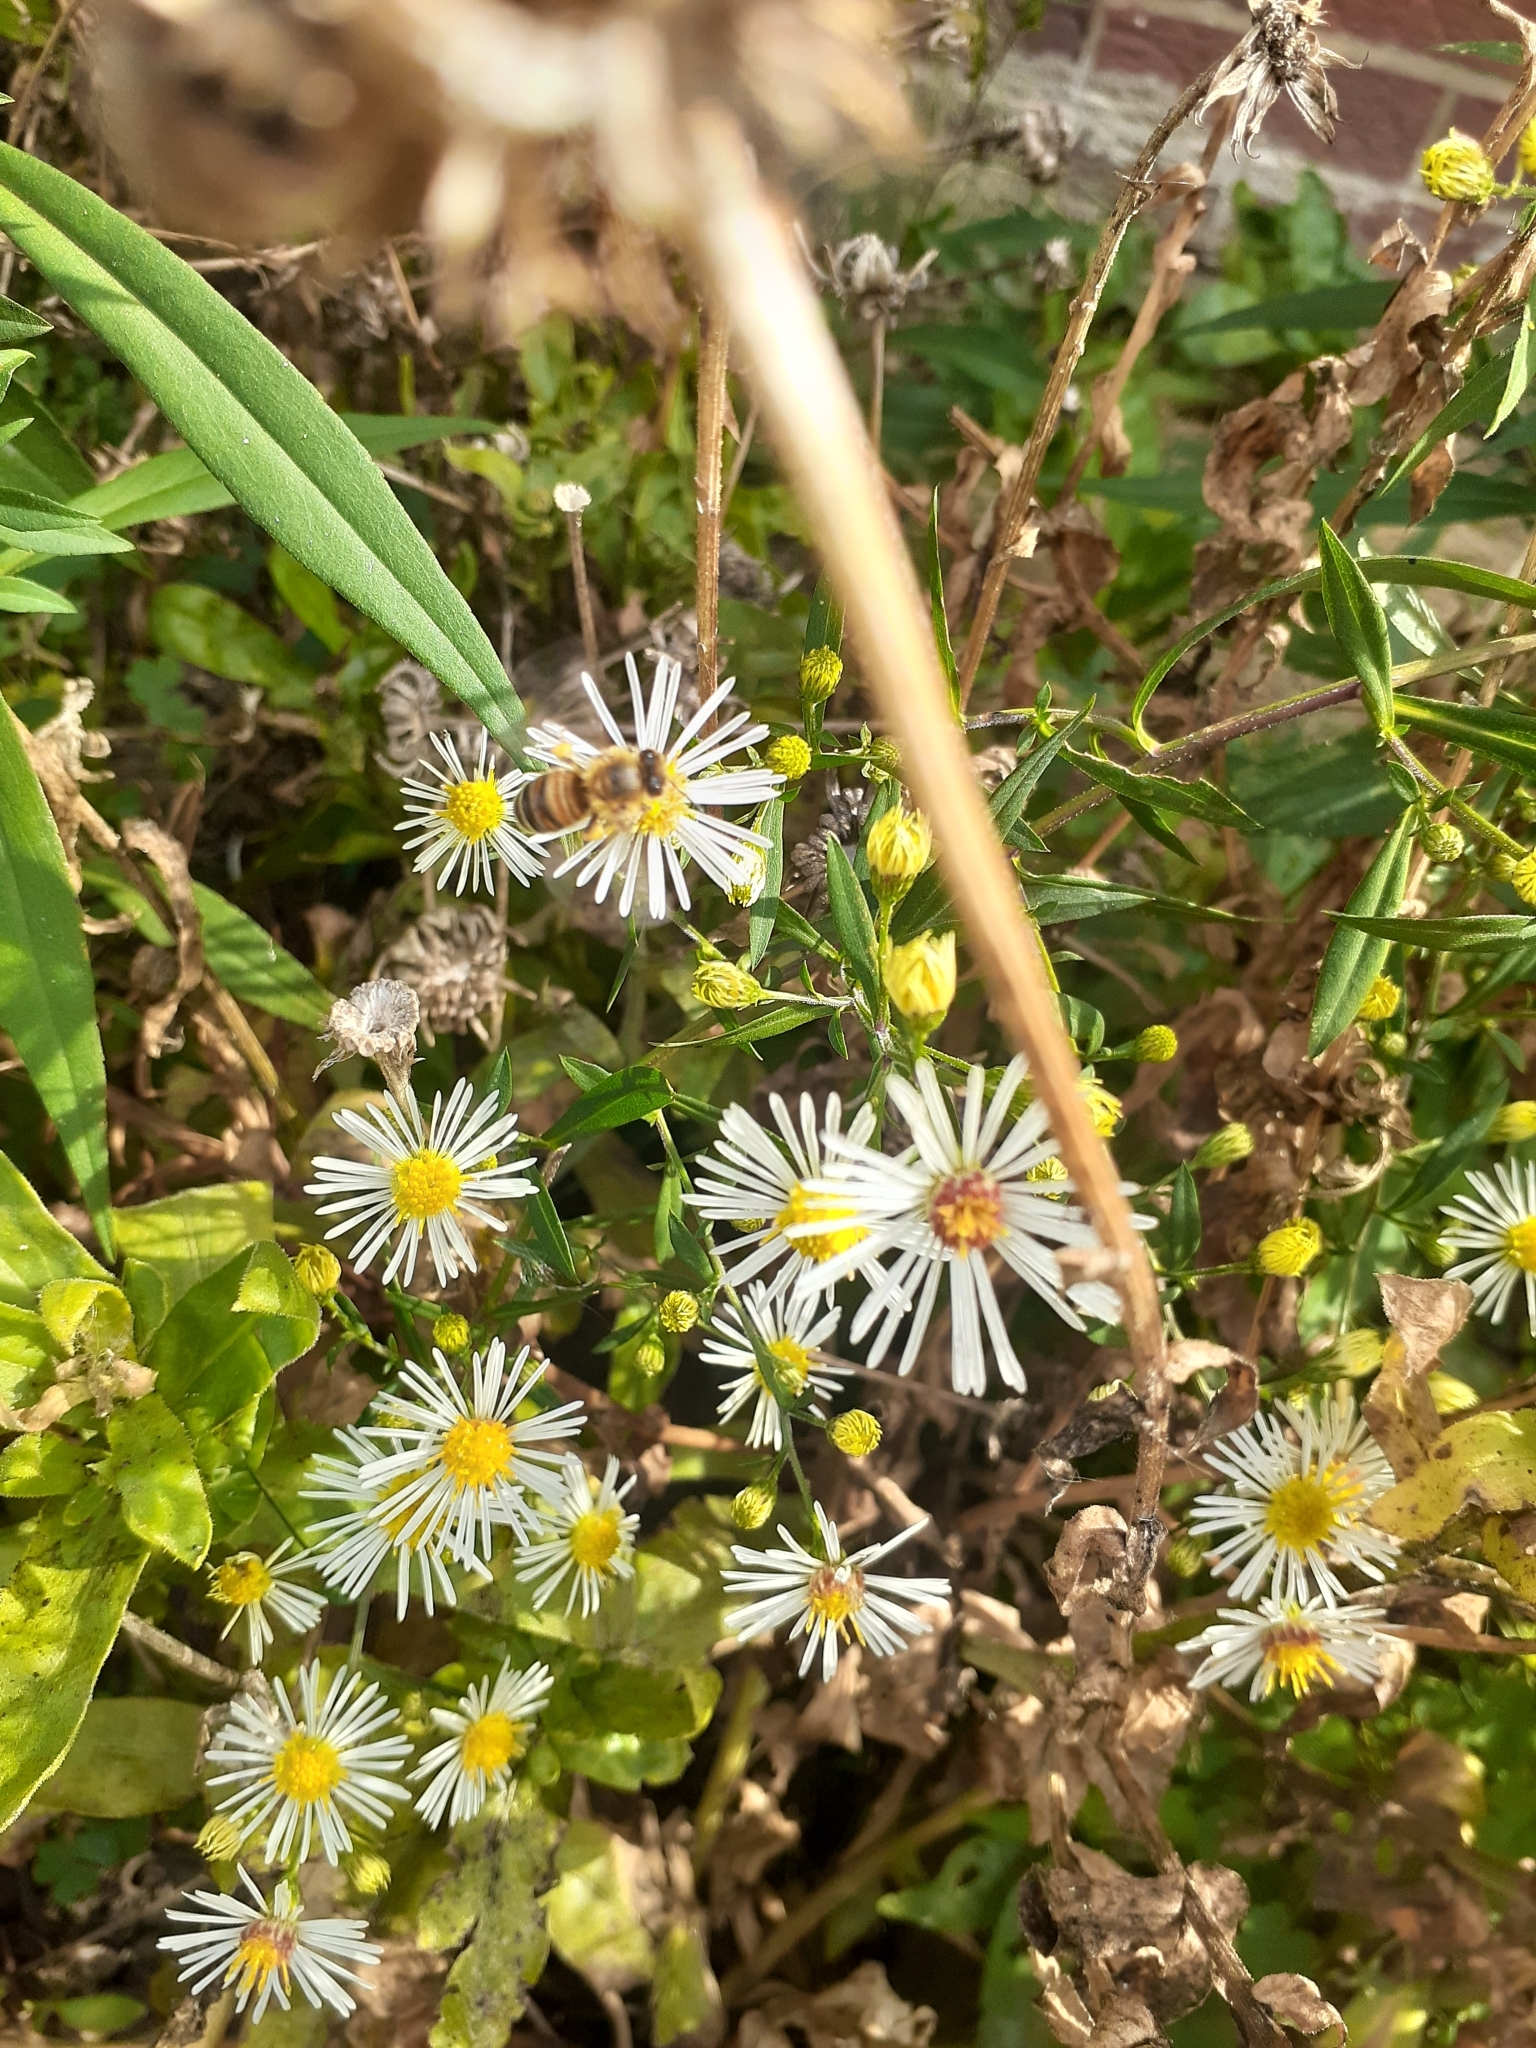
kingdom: Animalia
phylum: Arthropoda
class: Insecta
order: Hymenoptera
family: Apidae
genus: Apis
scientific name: Apis mellifera
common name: Honey bee
